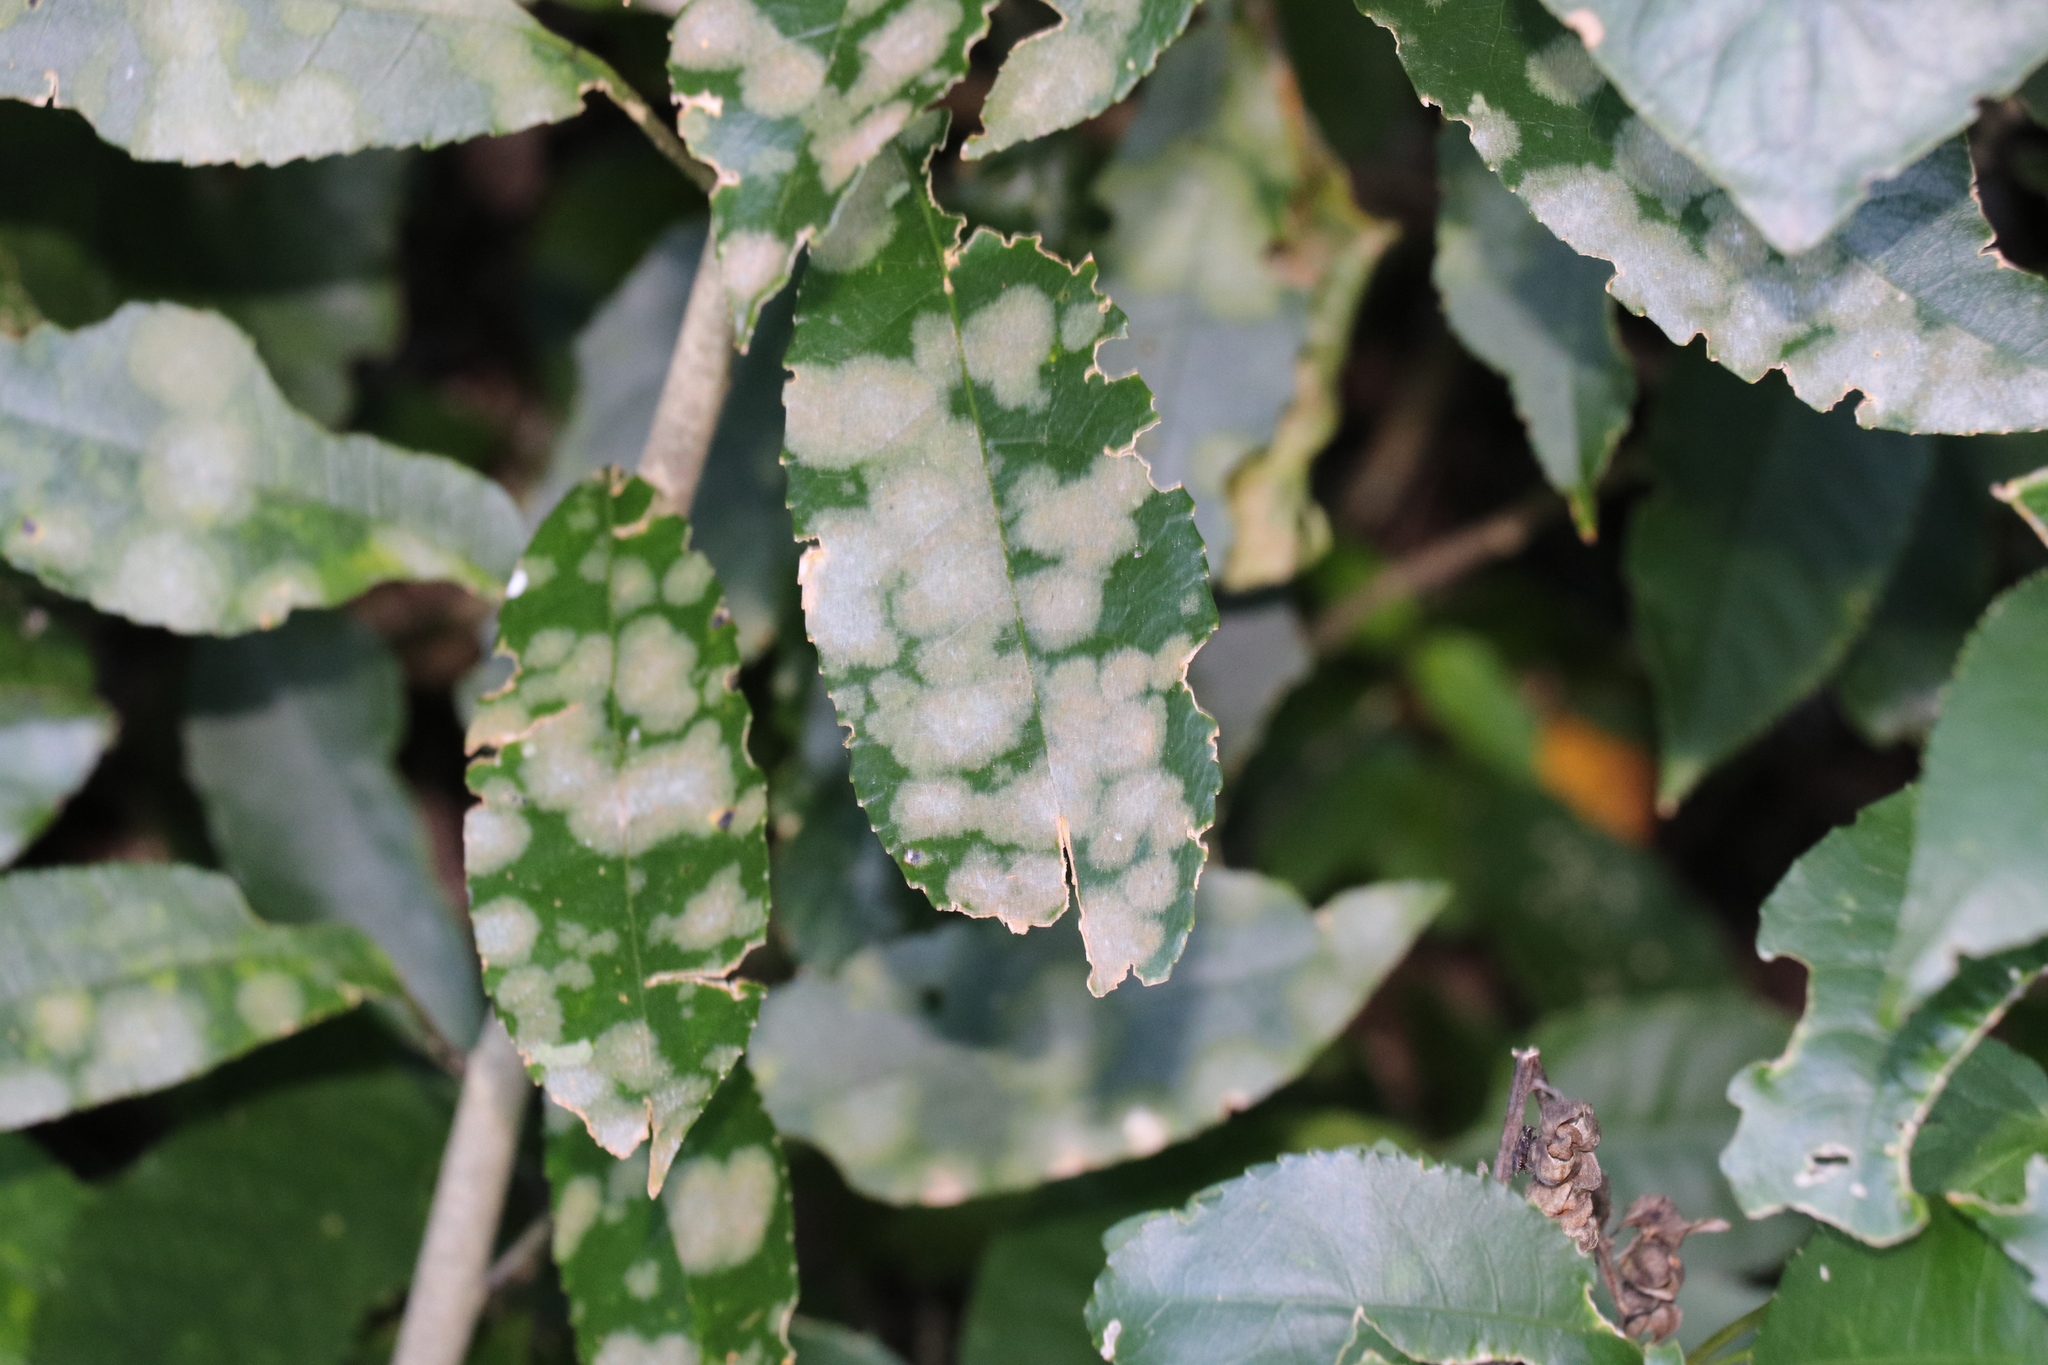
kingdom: Plantae
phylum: Chlorophyta
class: Ulvophyceae
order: Trentepohliales
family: Trentepohliaceae
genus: Cephaleuros
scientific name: Cephaleuros
